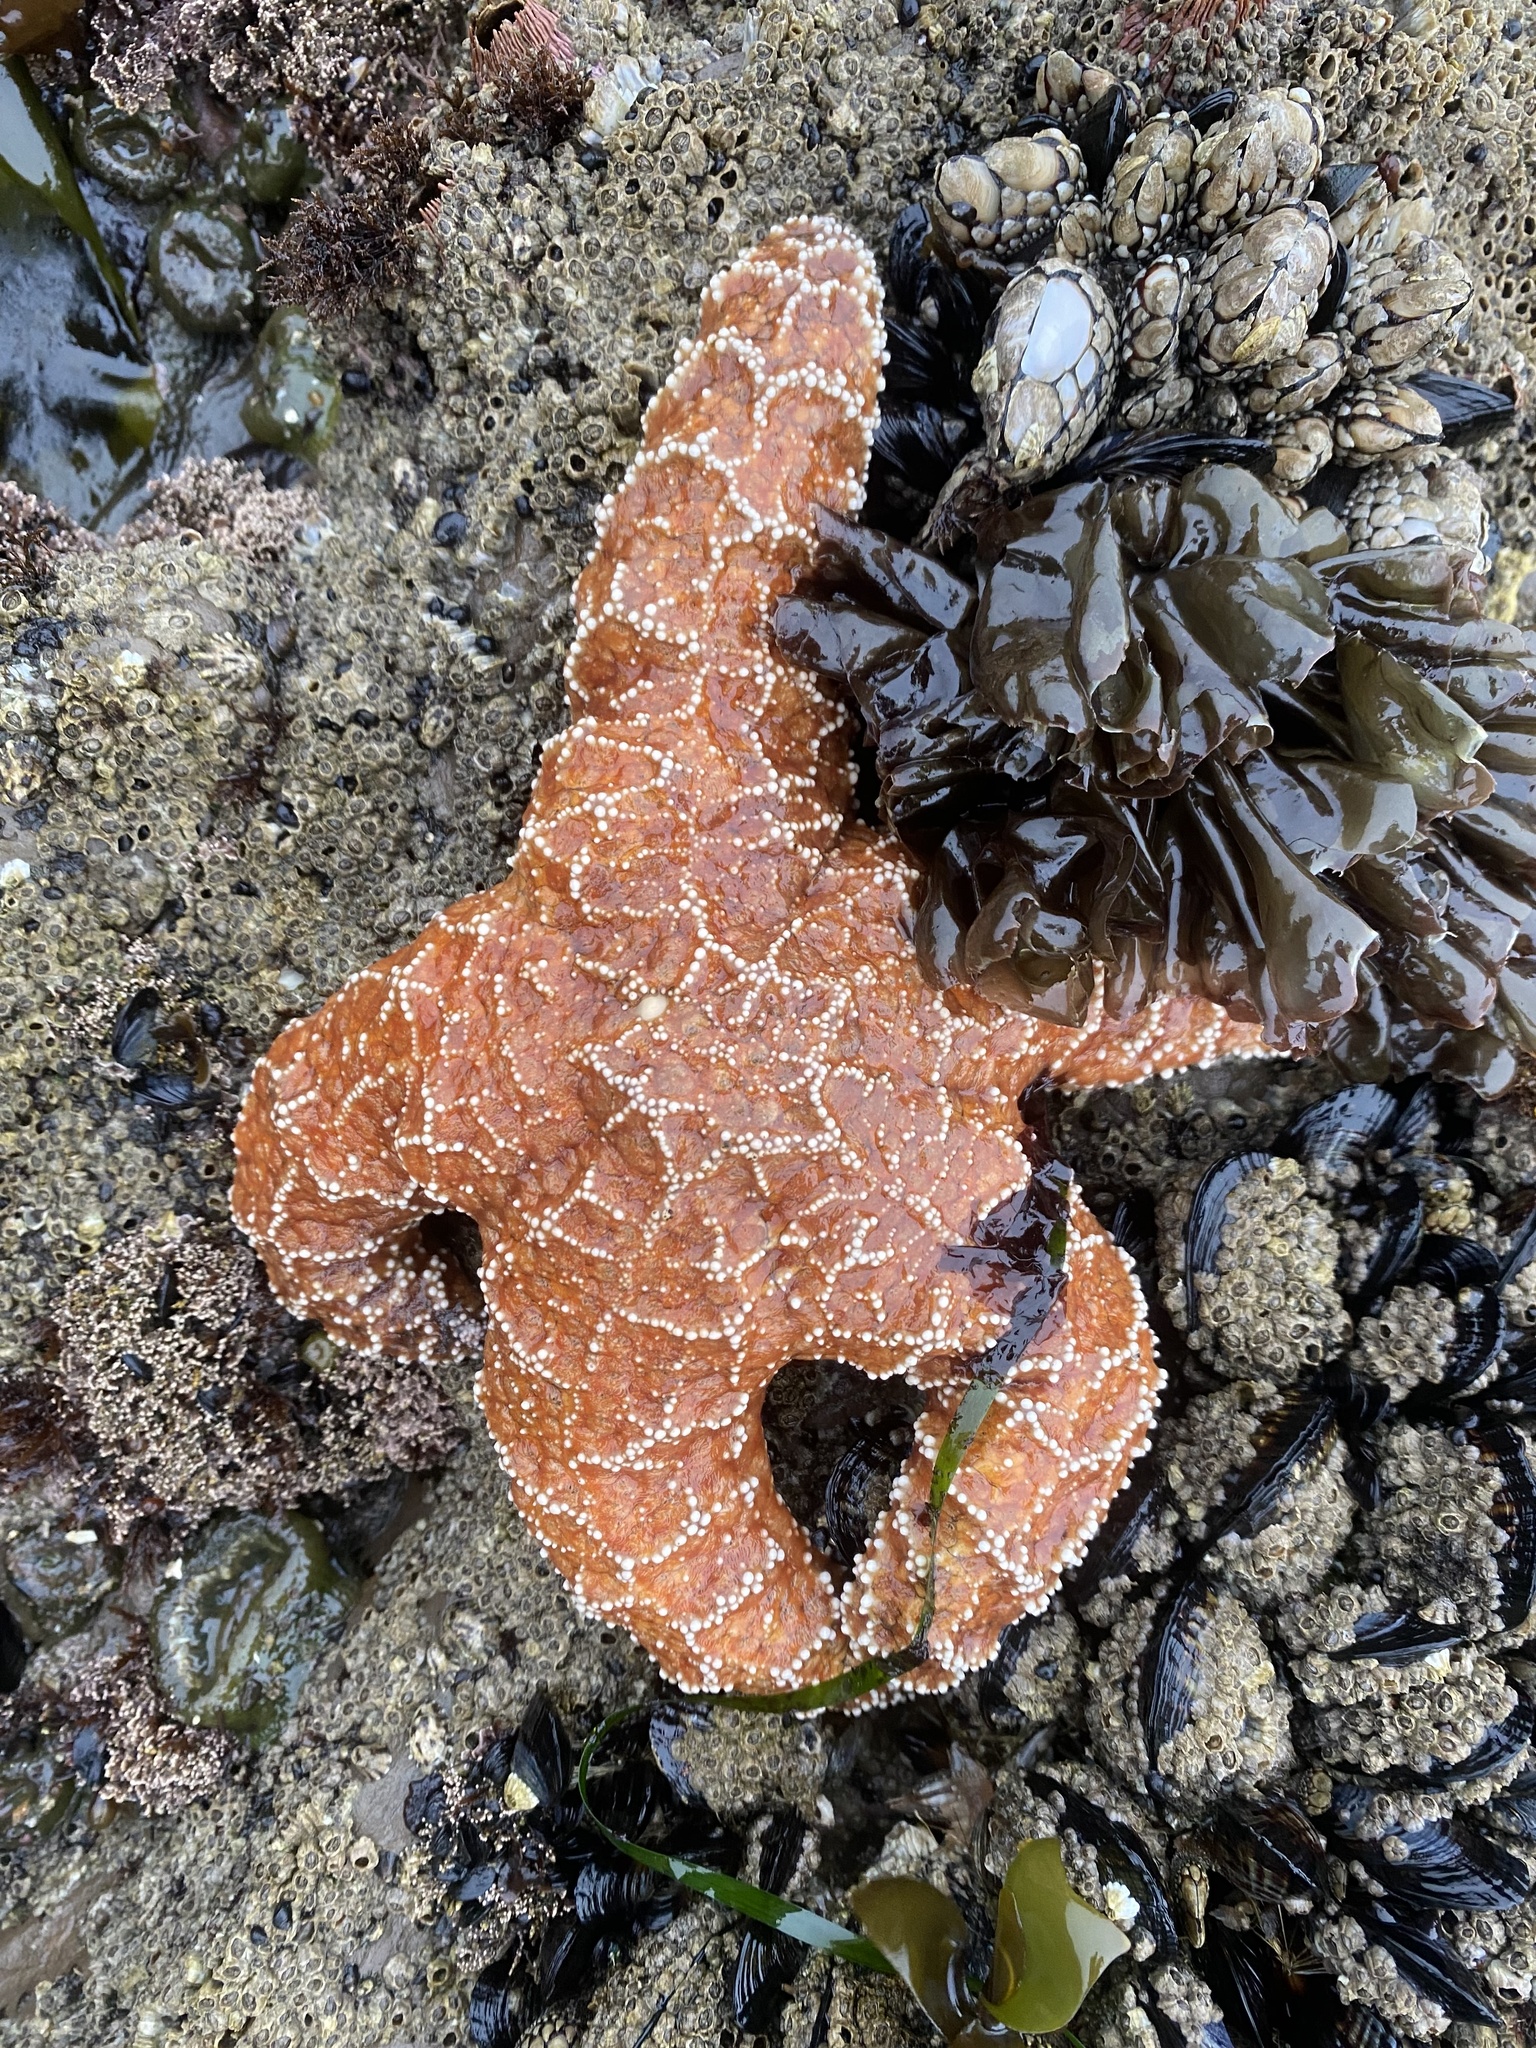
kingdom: Animalia
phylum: Echinodermata
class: Asteroidea
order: Forcipulatida
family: Asteriidae
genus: Pisaster
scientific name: Pisaster ochraceus
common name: Ochre stars
